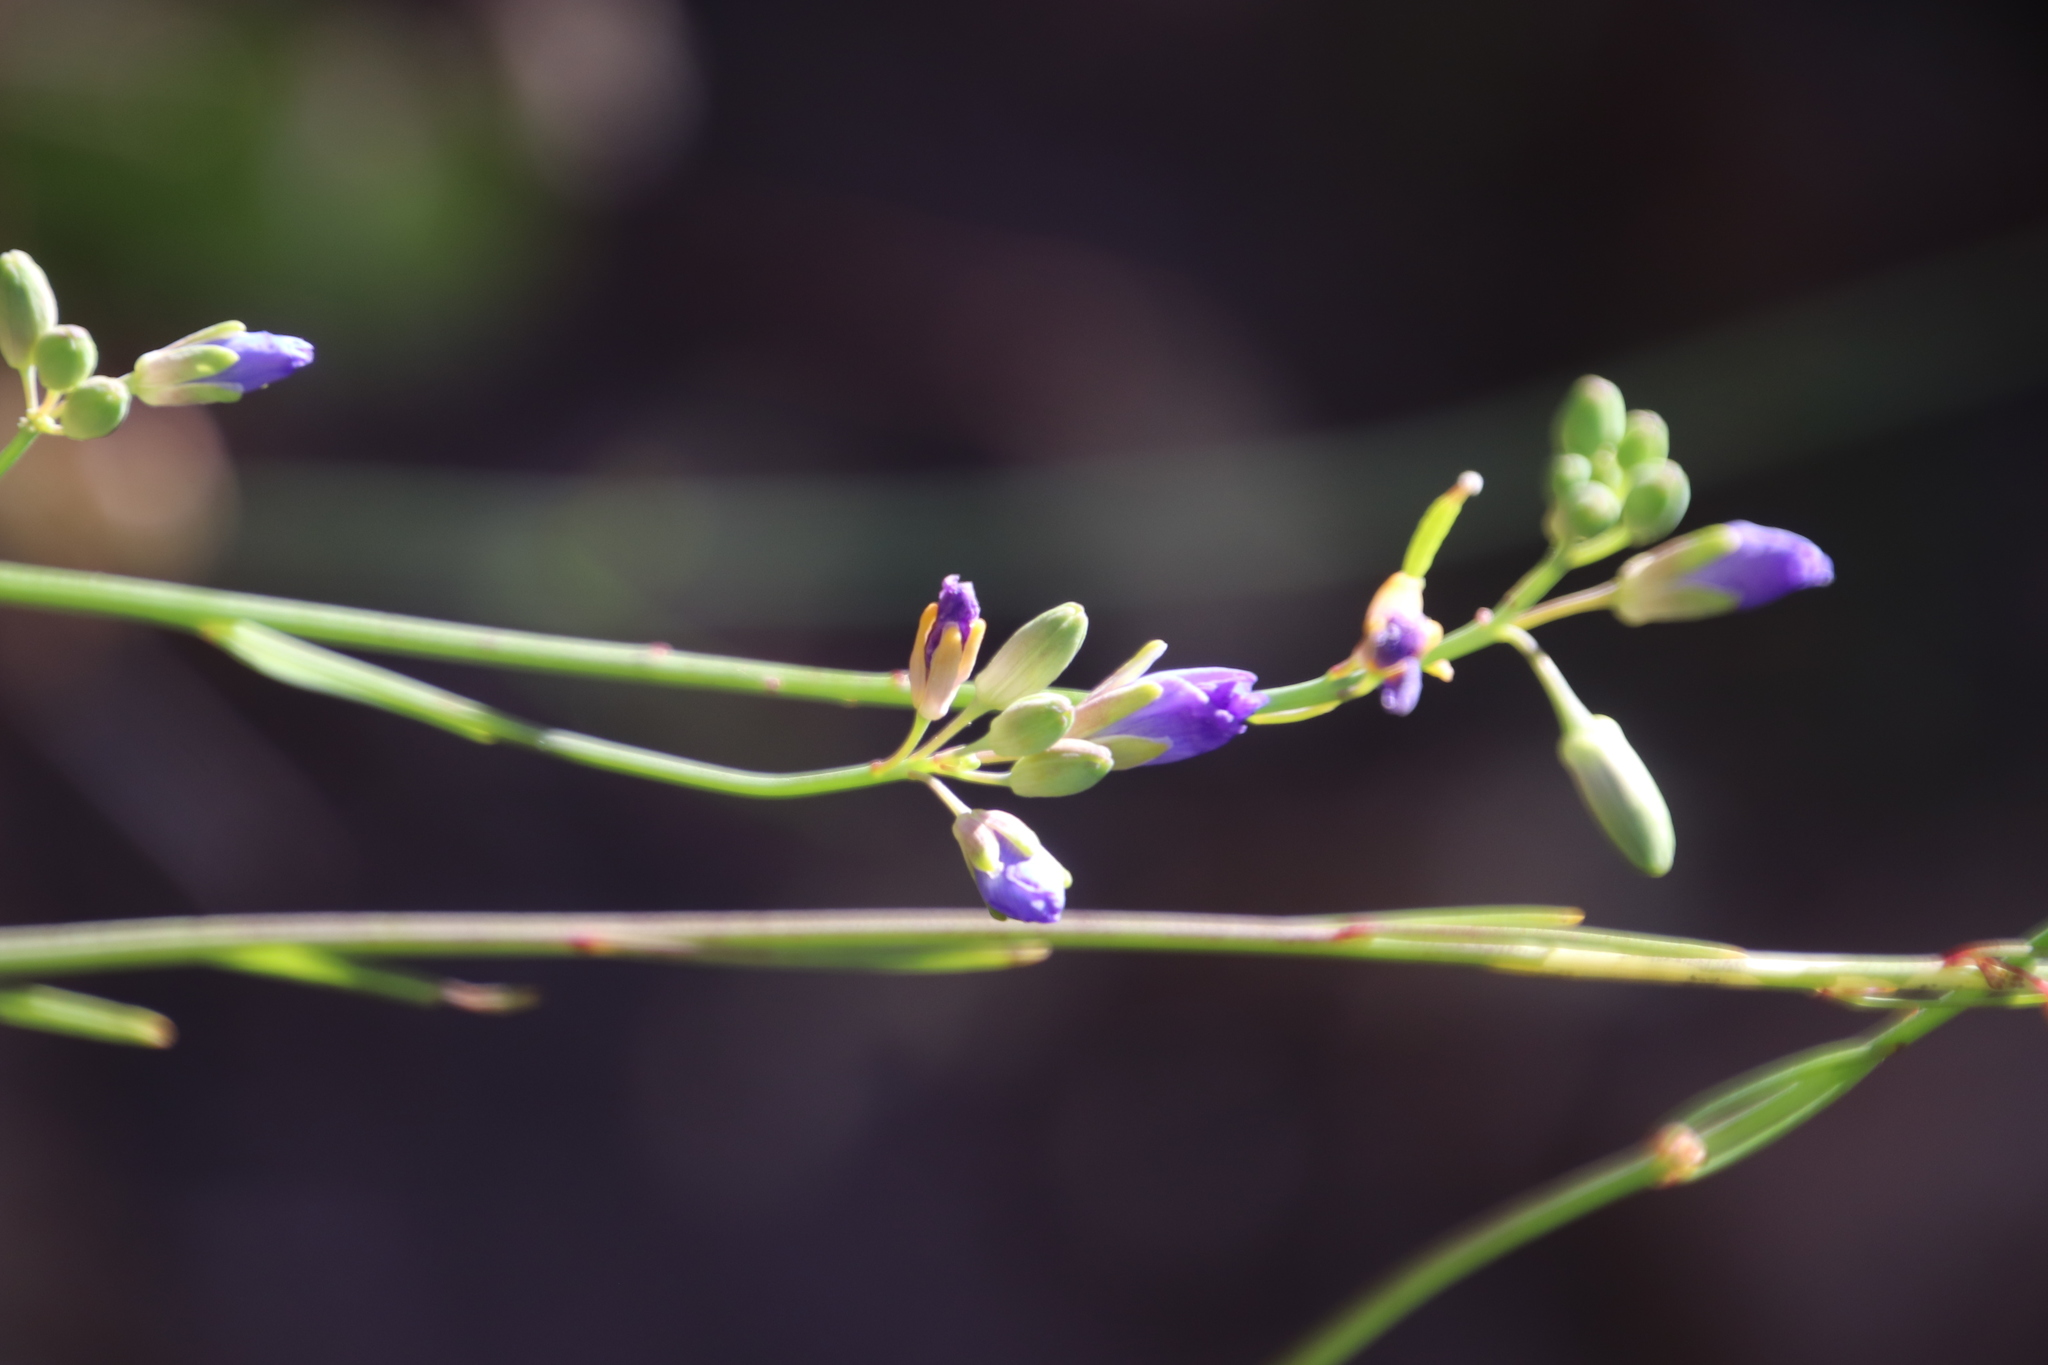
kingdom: Plantae
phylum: Tracheophyta
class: Magnoliopsida
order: Brassicales
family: Brassicaceae
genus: Heliophila
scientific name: Heliophila linearis
